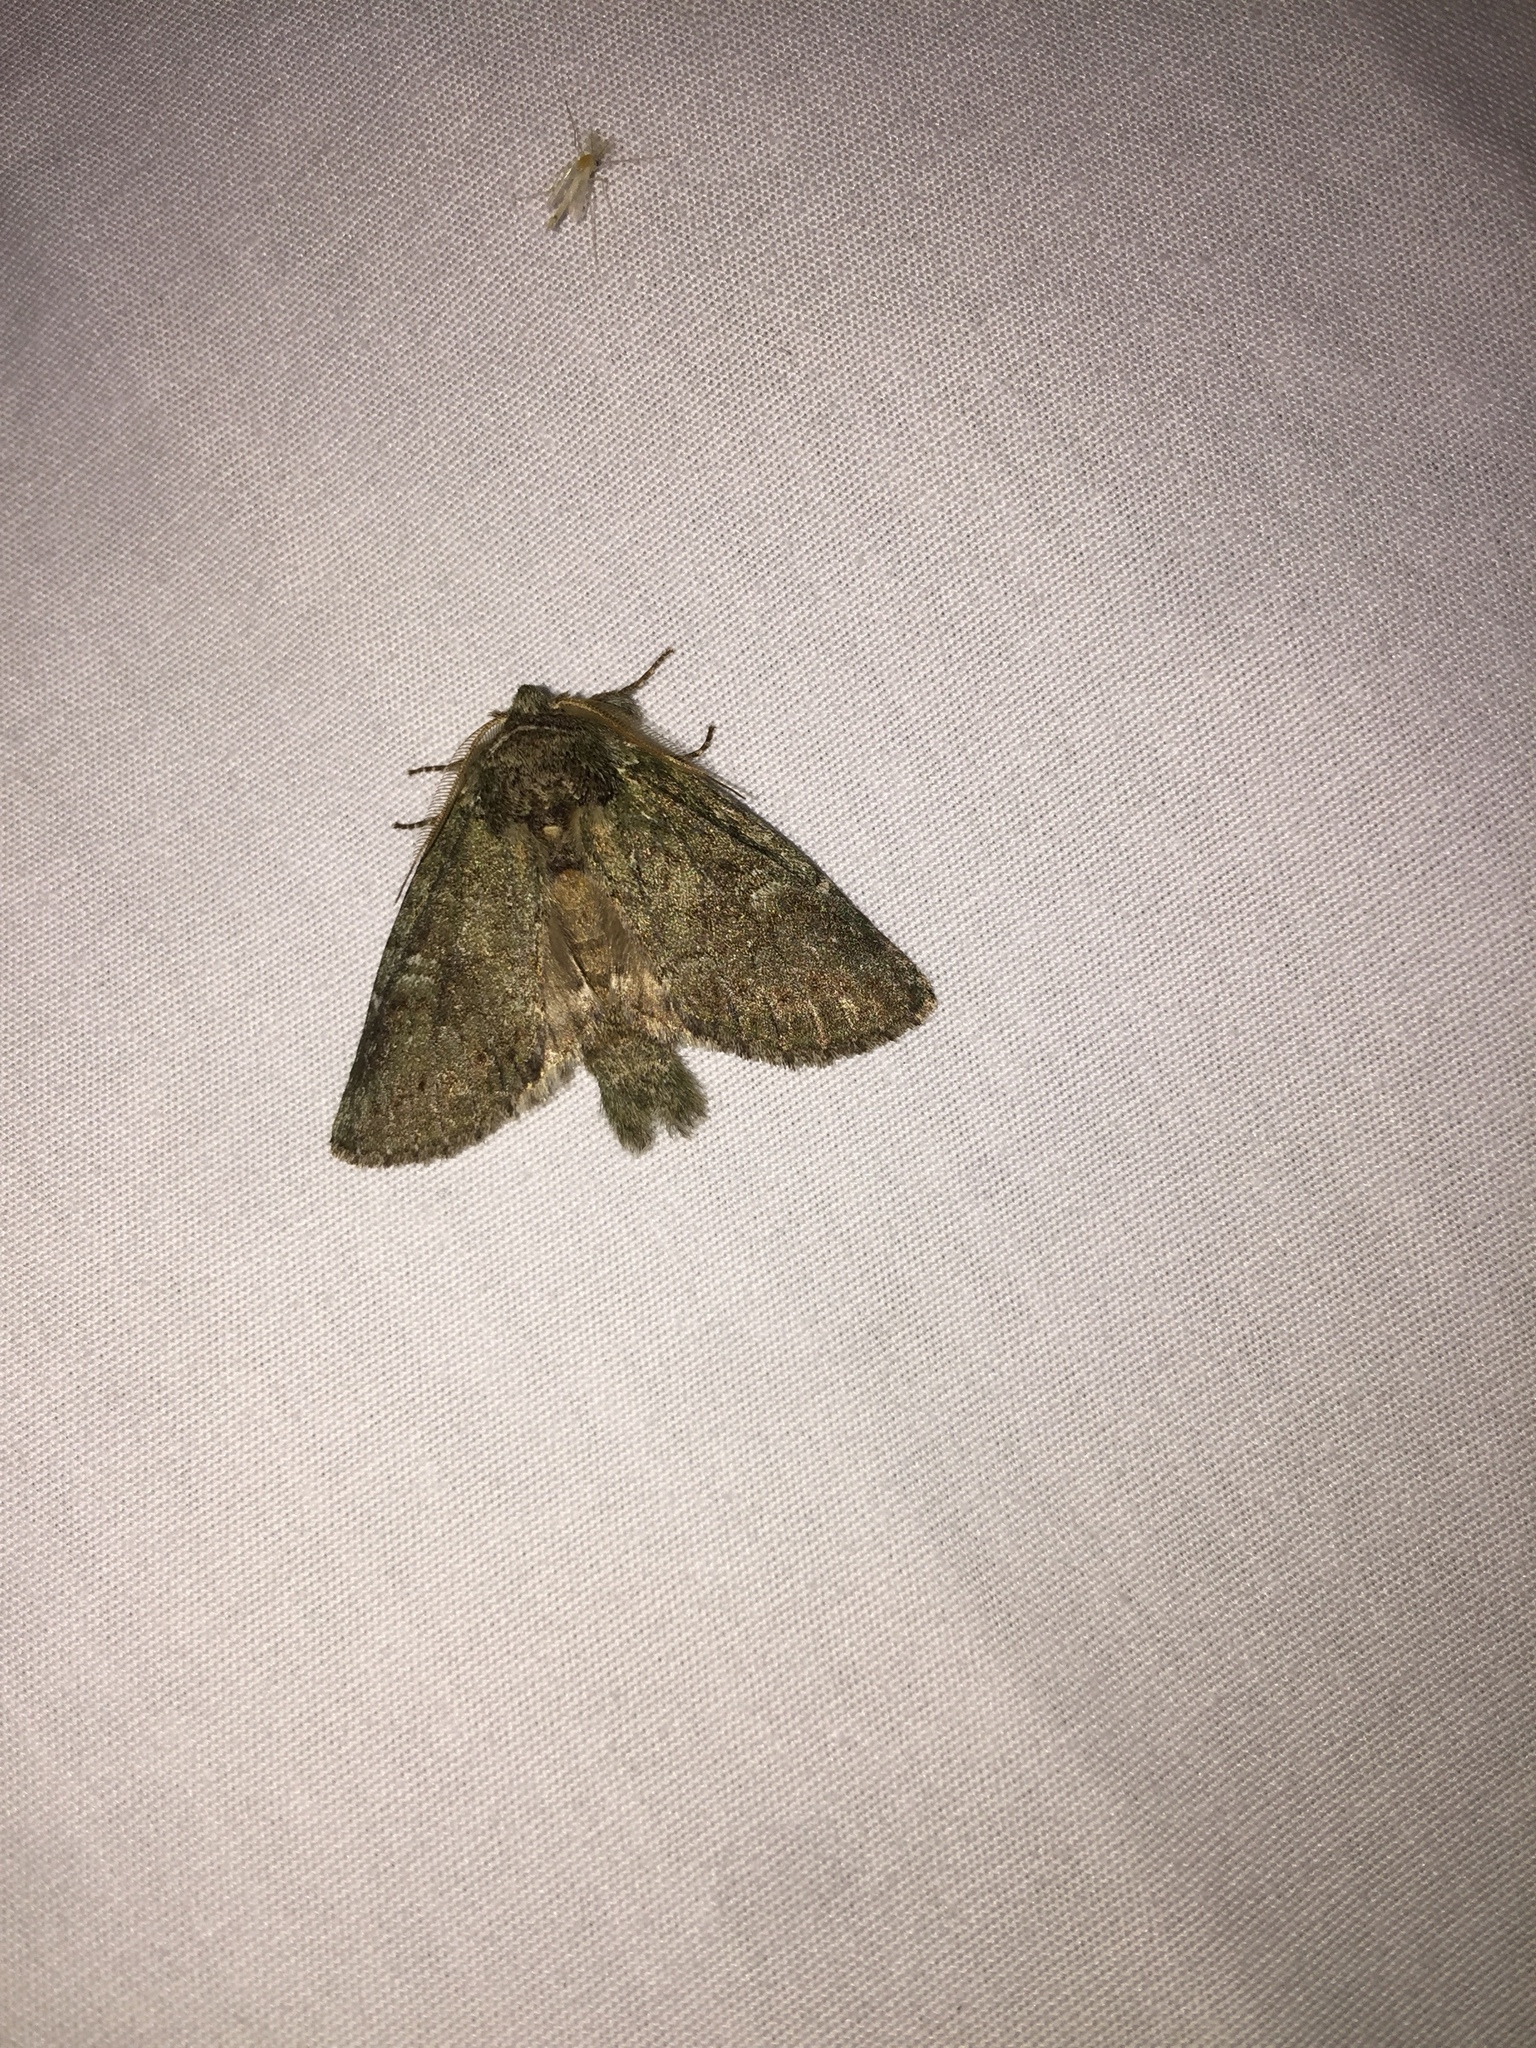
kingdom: Animalia
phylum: Arthropoda
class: Insecta
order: Lepidoptera
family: Notodontidae
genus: Disphragis
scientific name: Disphragis Cecrita guttivitta
